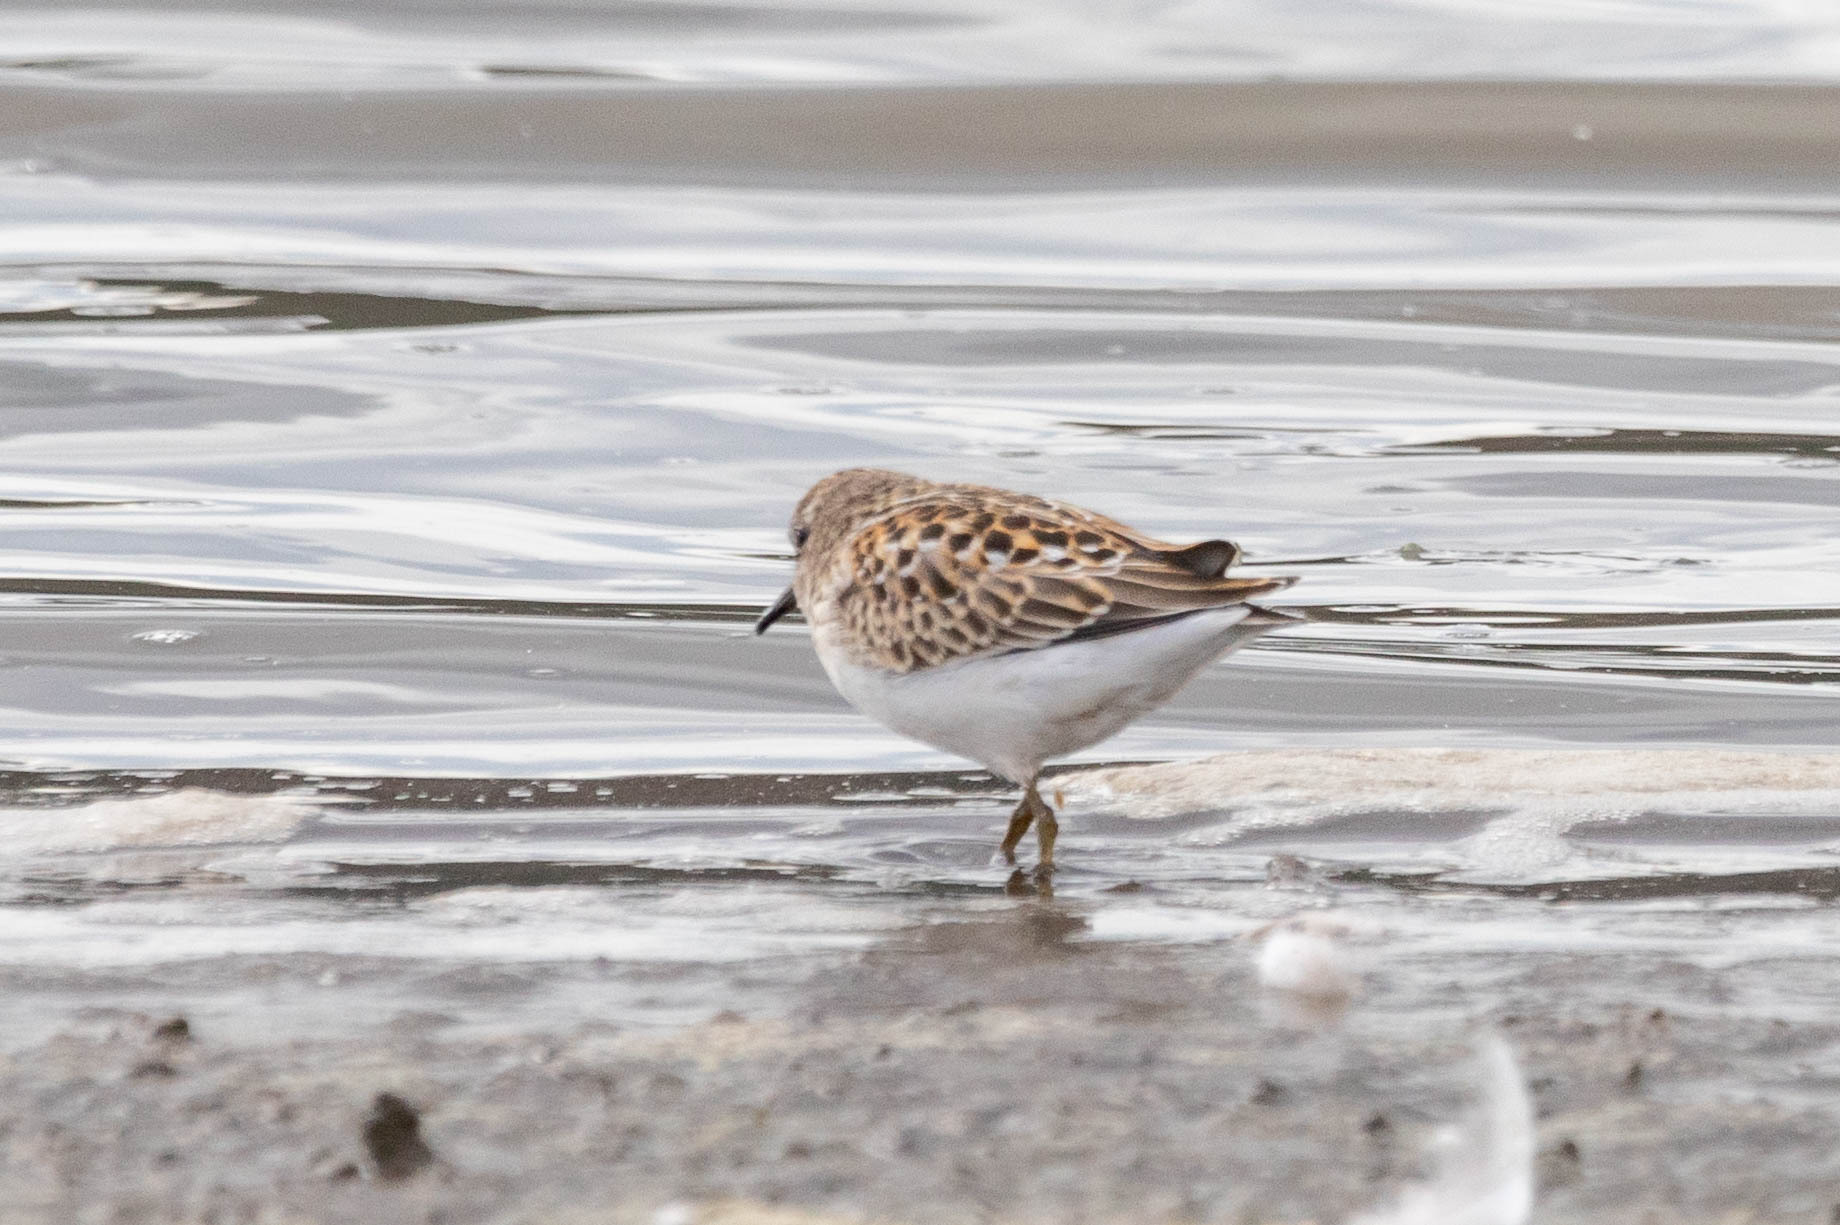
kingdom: Animalia
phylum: Chordata
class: Aves
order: Charadriiformes
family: Scolopacidae
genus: Calidris
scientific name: Calidris minutilla
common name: Least sandpiper
